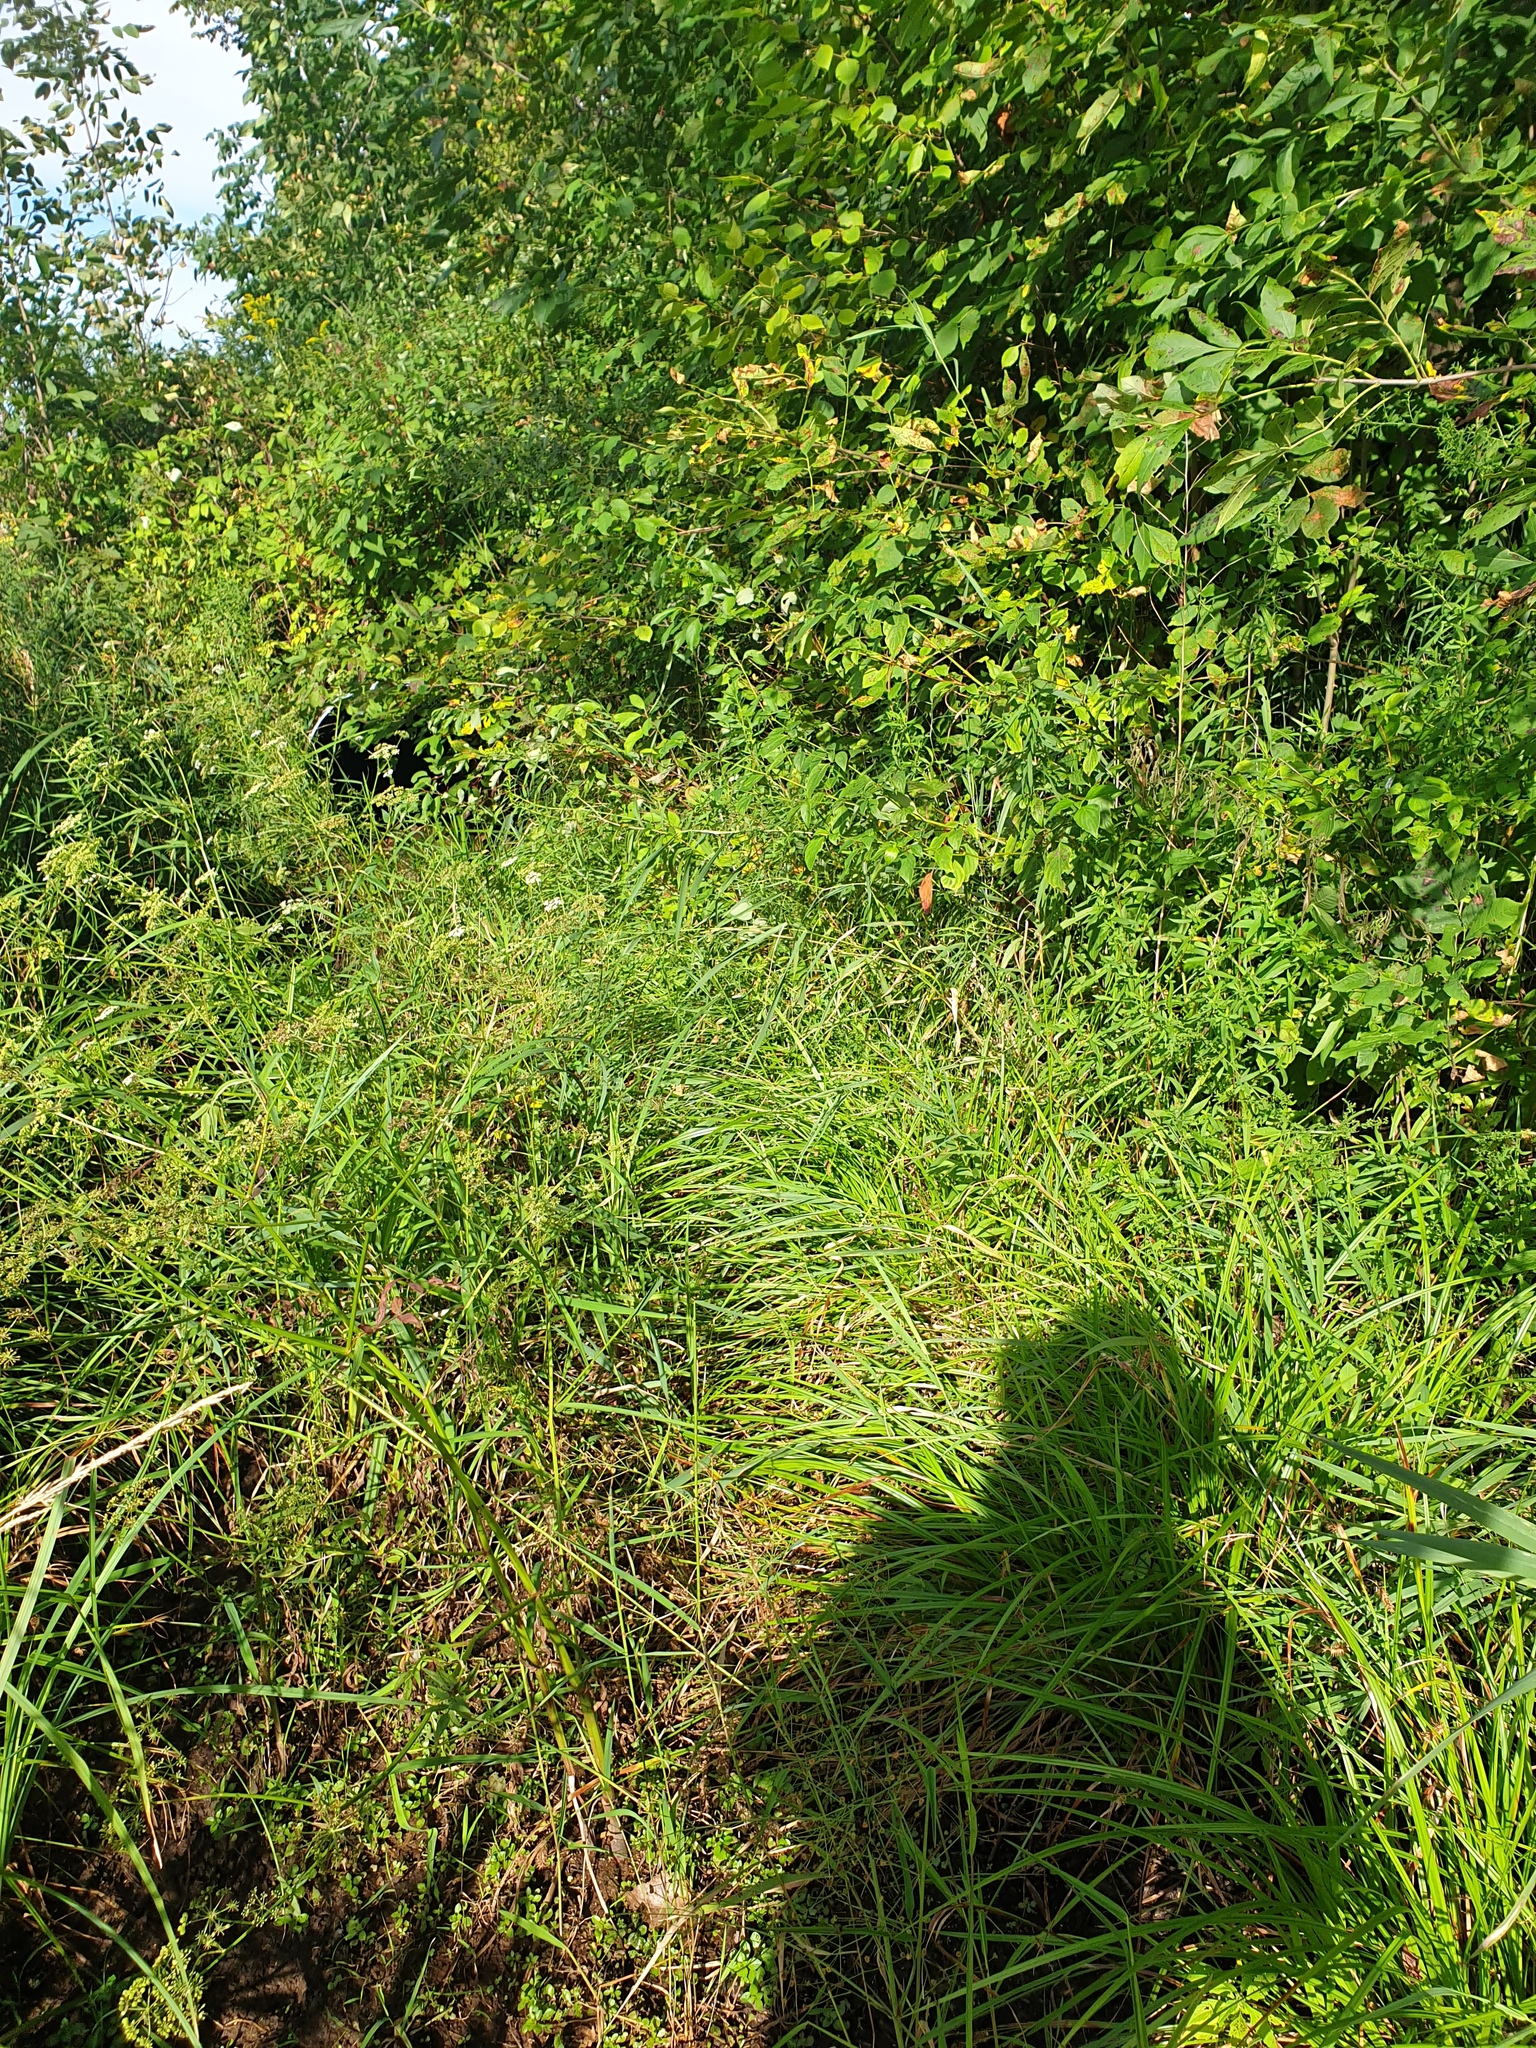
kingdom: Plantae
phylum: Tracheophyta
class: Liliopsida
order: Poales
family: Cyperaceae
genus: Carex
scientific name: Carex comosa
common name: Bristly sedge
